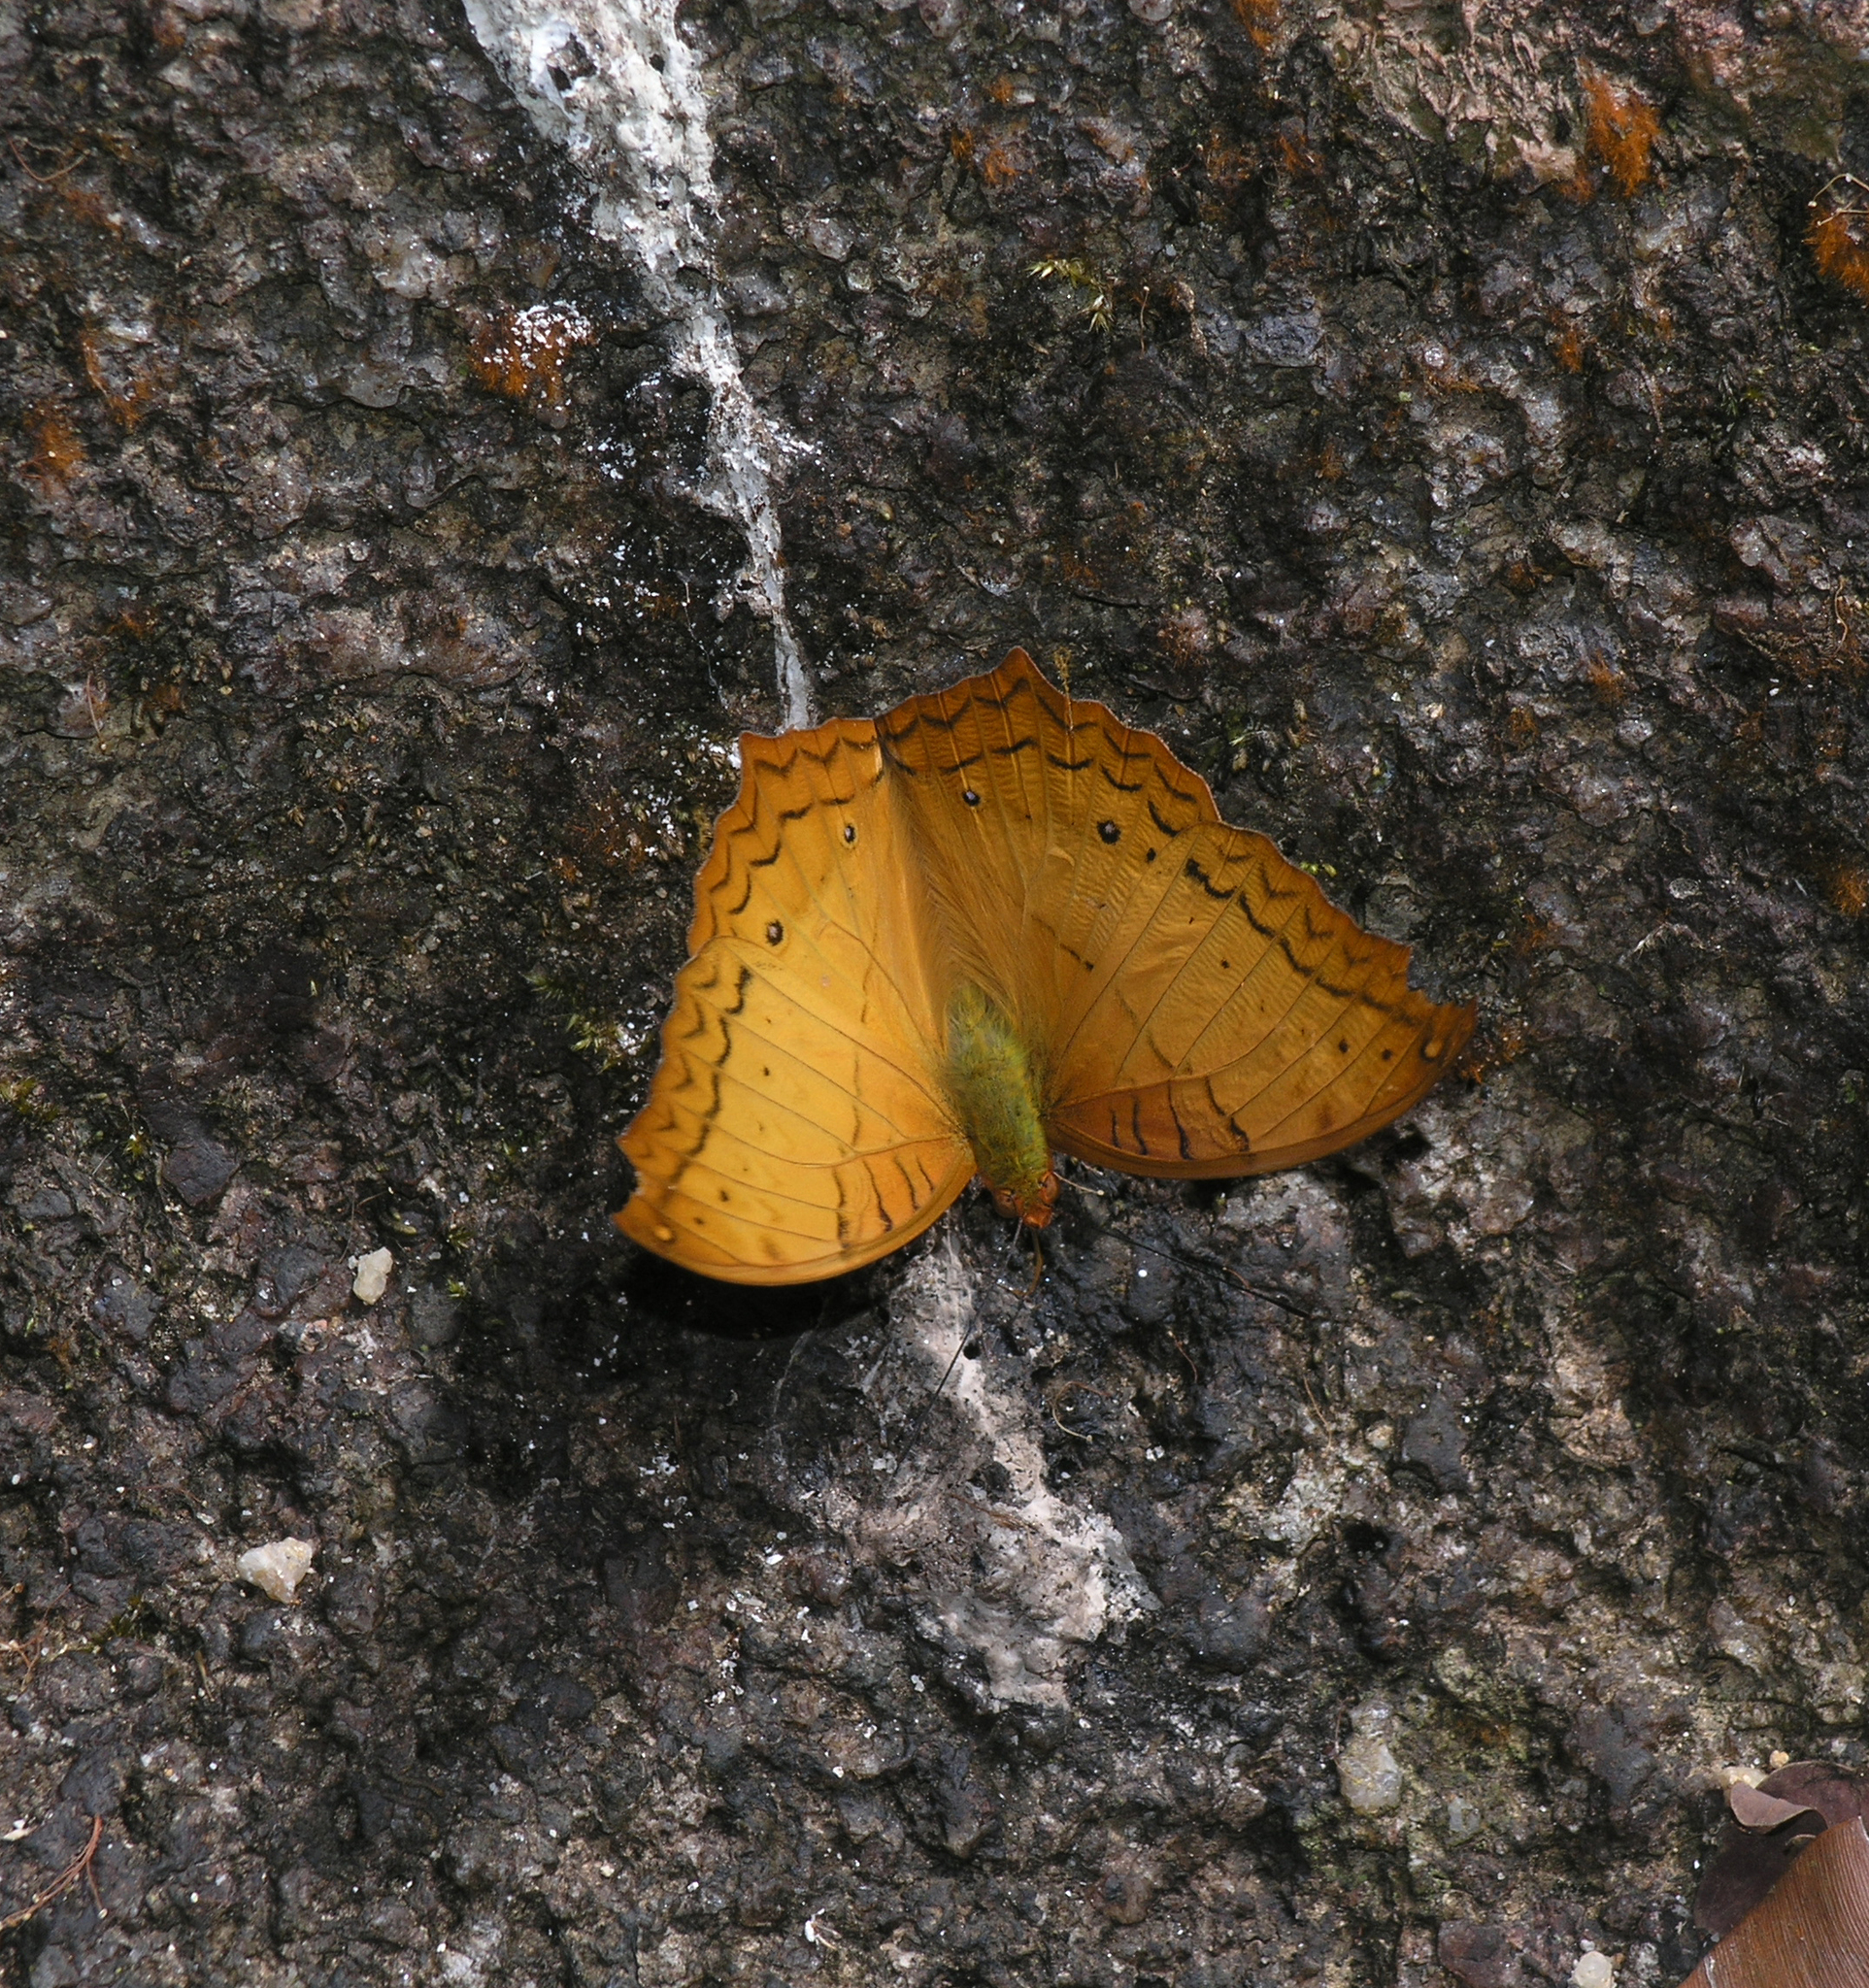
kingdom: Animalia
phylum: Arthropoda
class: Insecta
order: Lepidoptera
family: Nymphalidae
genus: Vindula
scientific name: Vindula erota
